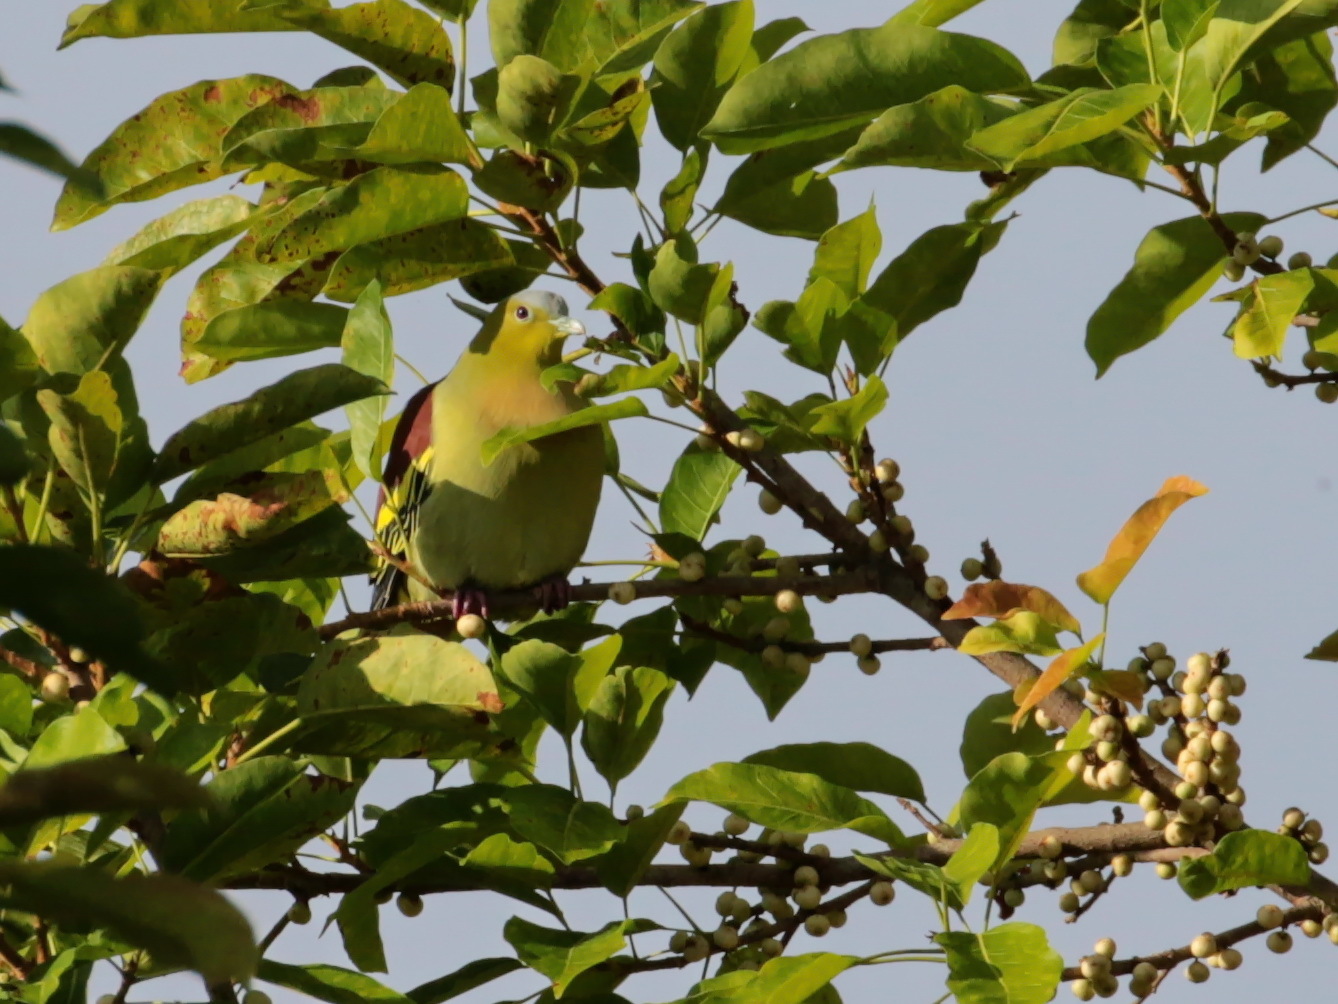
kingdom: Animalia
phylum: Chordata
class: Aves
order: Columbiformes
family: Columbidae
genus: Treron
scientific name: Treron phayrei
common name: Ashy-headed green pigeon
